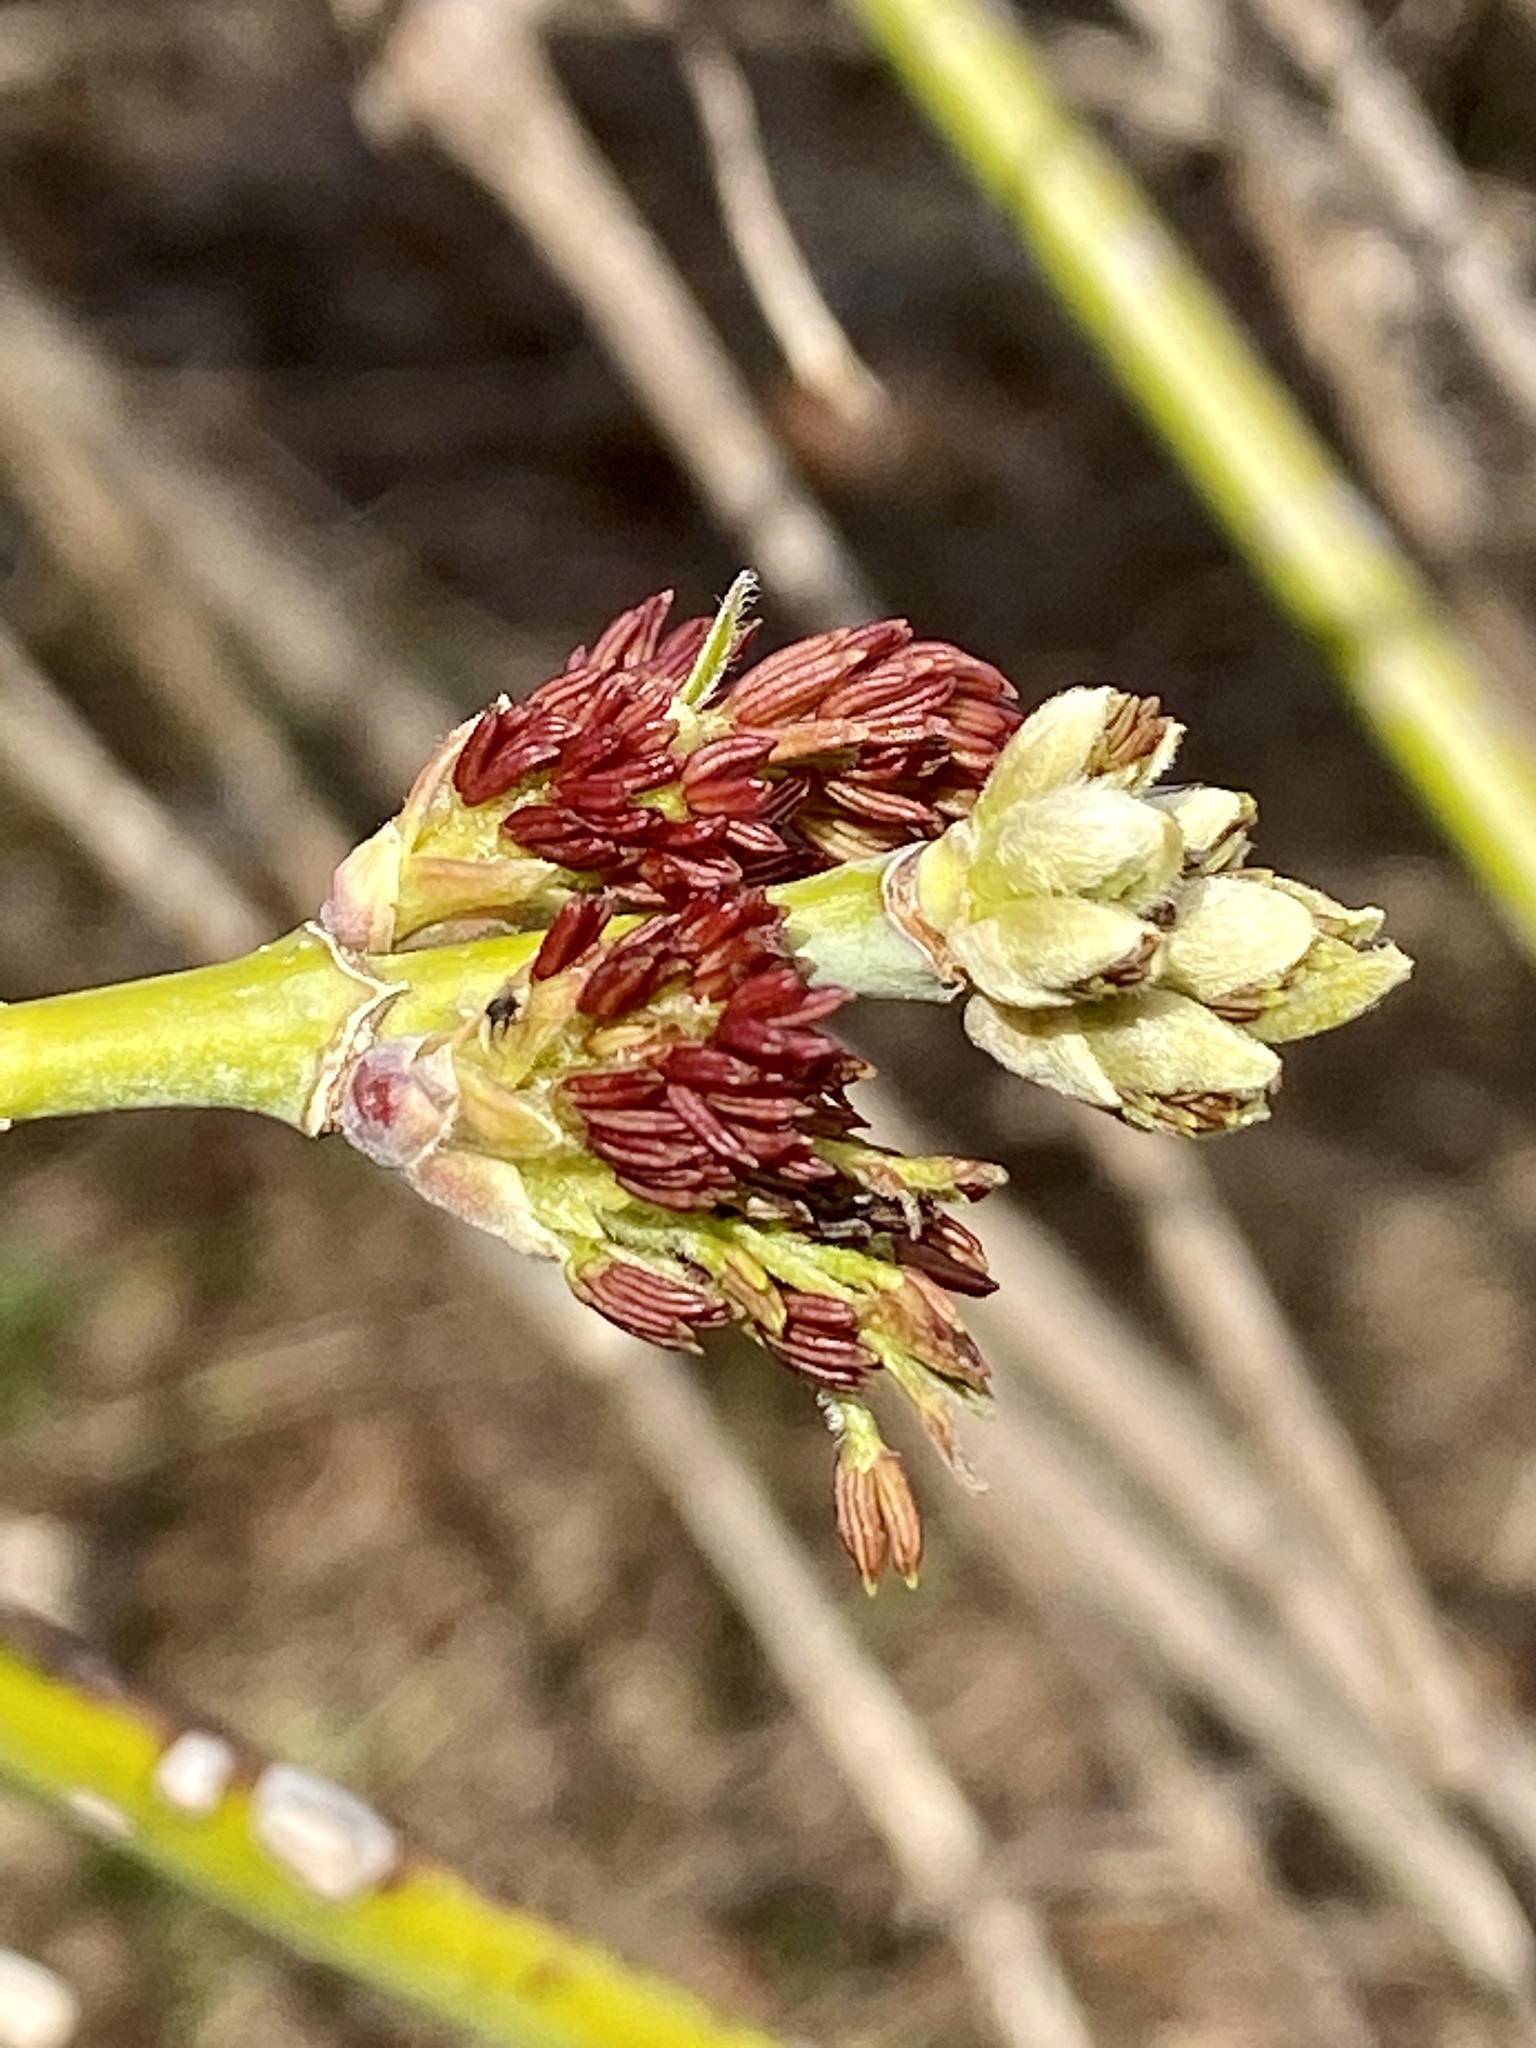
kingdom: Plantae
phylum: Tracheophyta
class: Magnoliopsida
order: Sapindales
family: Sapindaceae
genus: Acer
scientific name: Acer negundo
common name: Ashleaf maple
